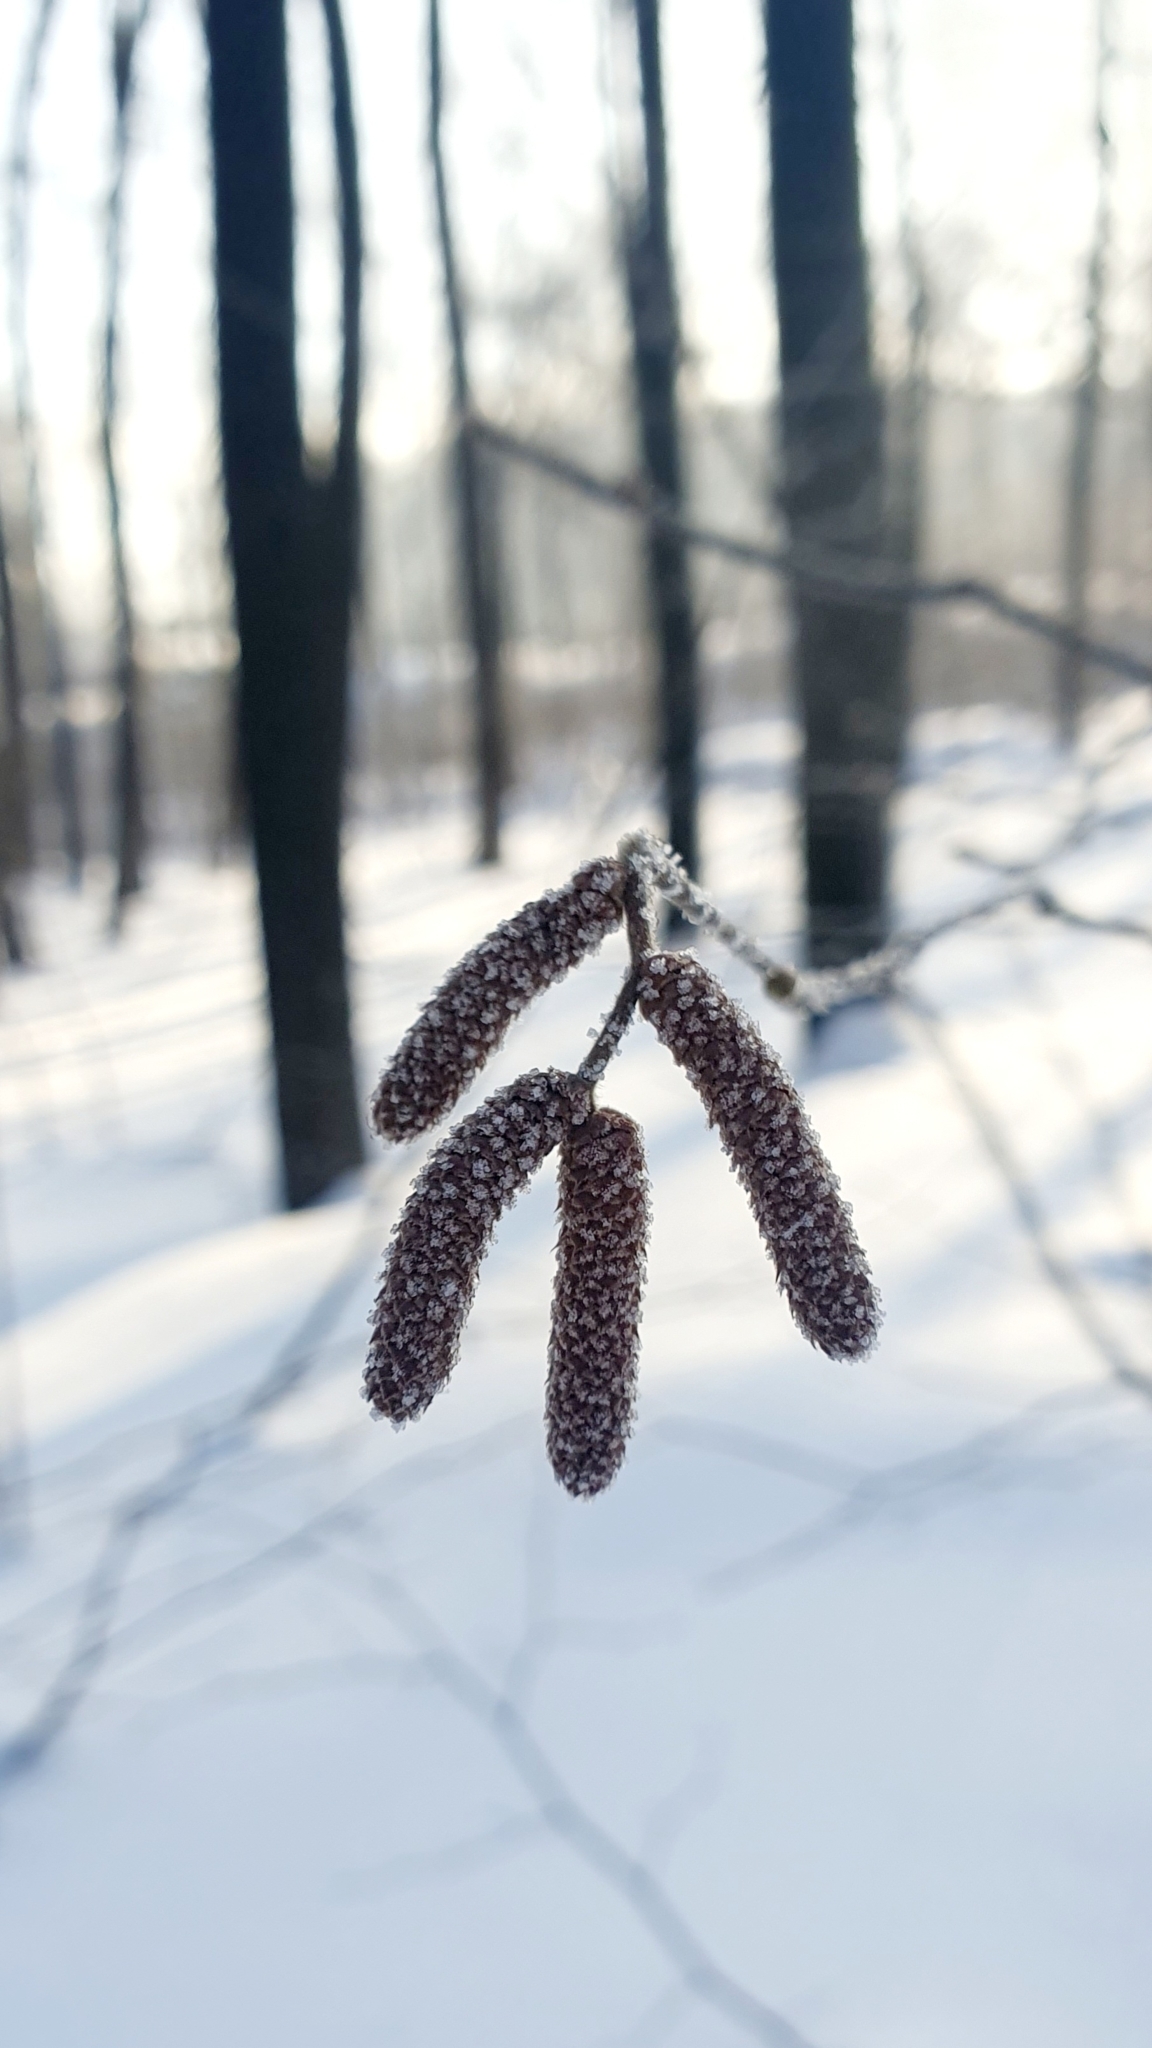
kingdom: Plantae
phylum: Tracheophyta
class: Magnoliopsida
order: Fagales
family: Betulaceae
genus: Corylus
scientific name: Corylus avellana
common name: European hazel
